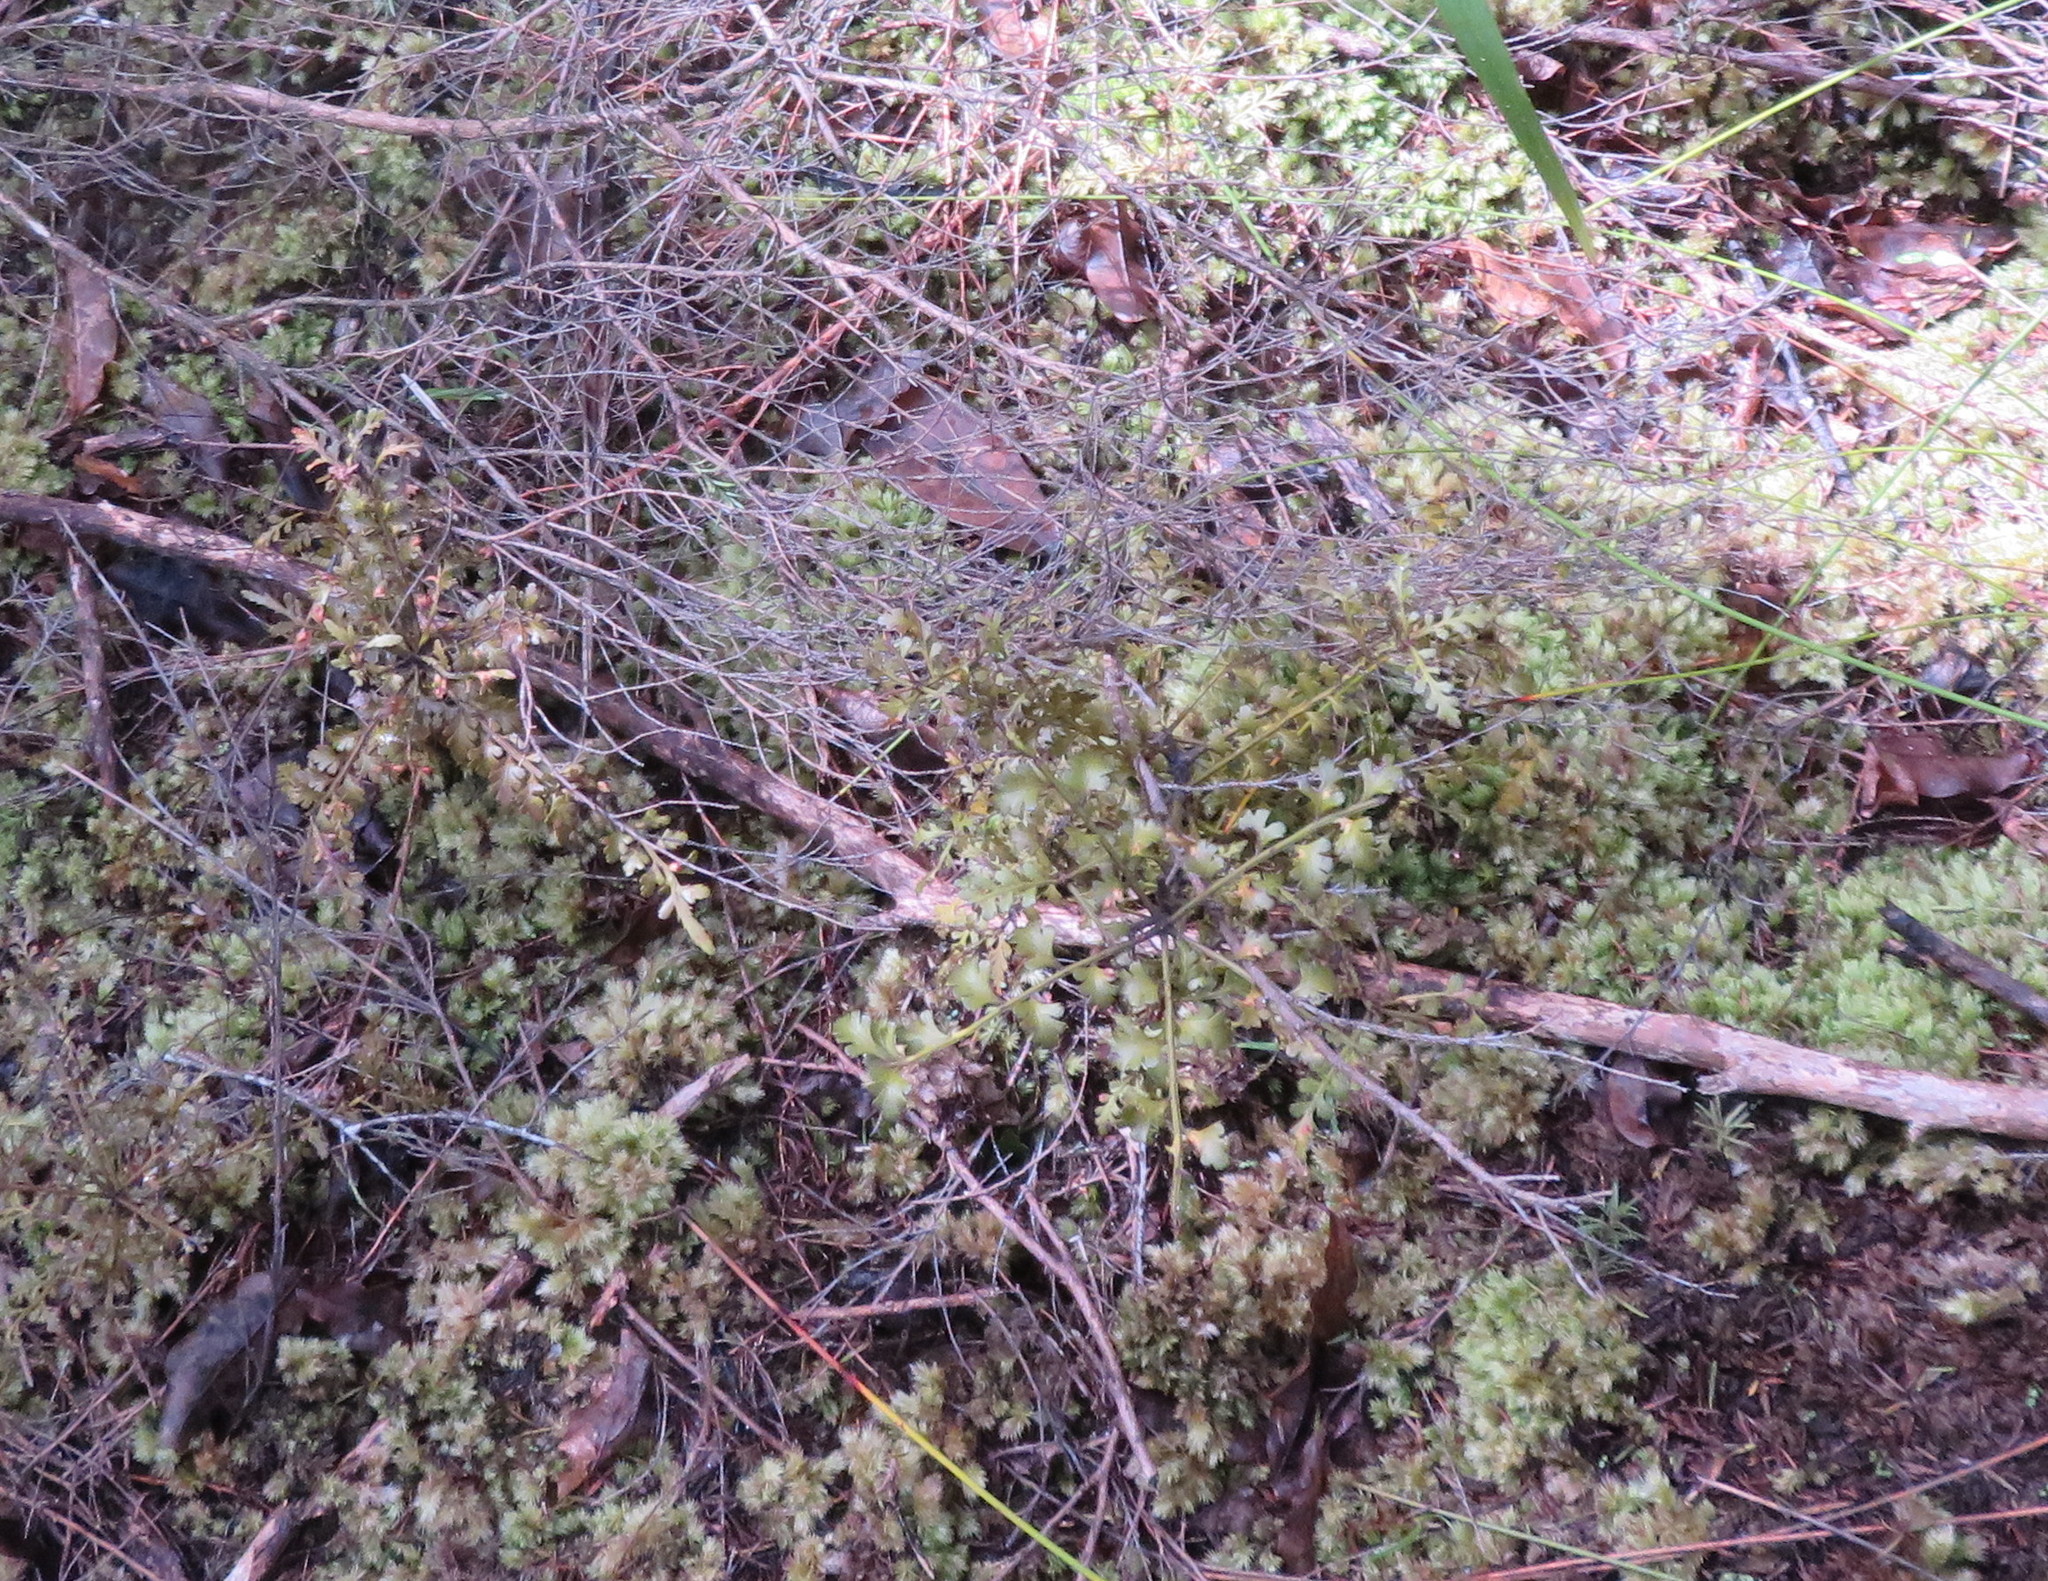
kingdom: Plantae
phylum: Tracheophyta
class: Pinopsida
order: Pinales
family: Phyllocladaceae
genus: Phyllocladus
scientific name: Phyllocladus trichomanoides
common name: Celery pine
